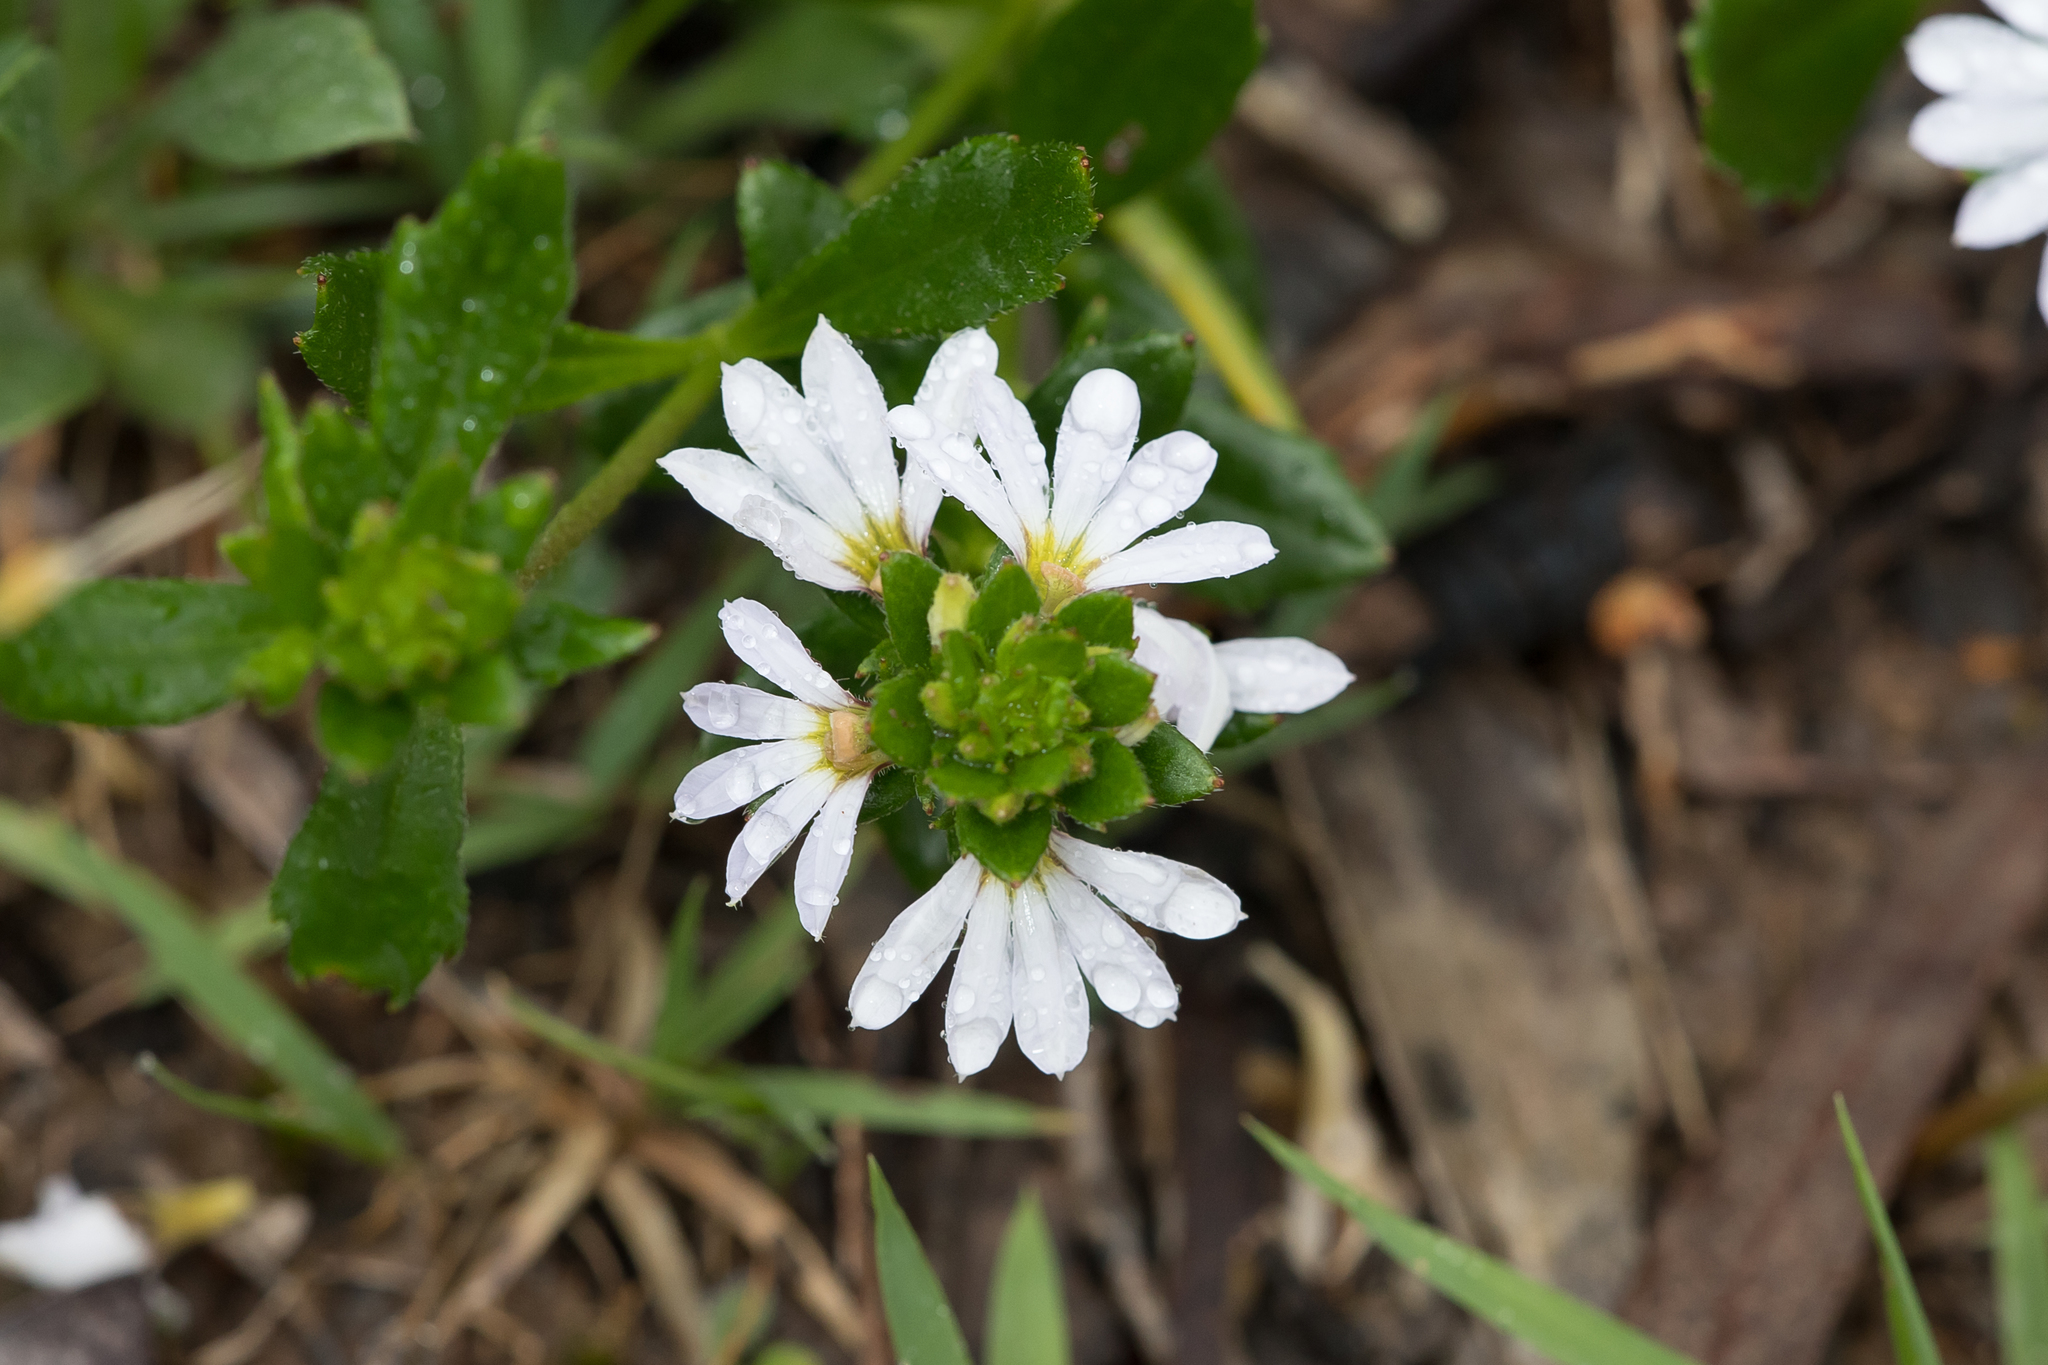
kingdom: Plantae
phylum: Tracheophyta
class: Magnoliopsida
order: Asterales
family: Goodeniaceae
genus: Scaevola
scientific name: Scaevola albida
